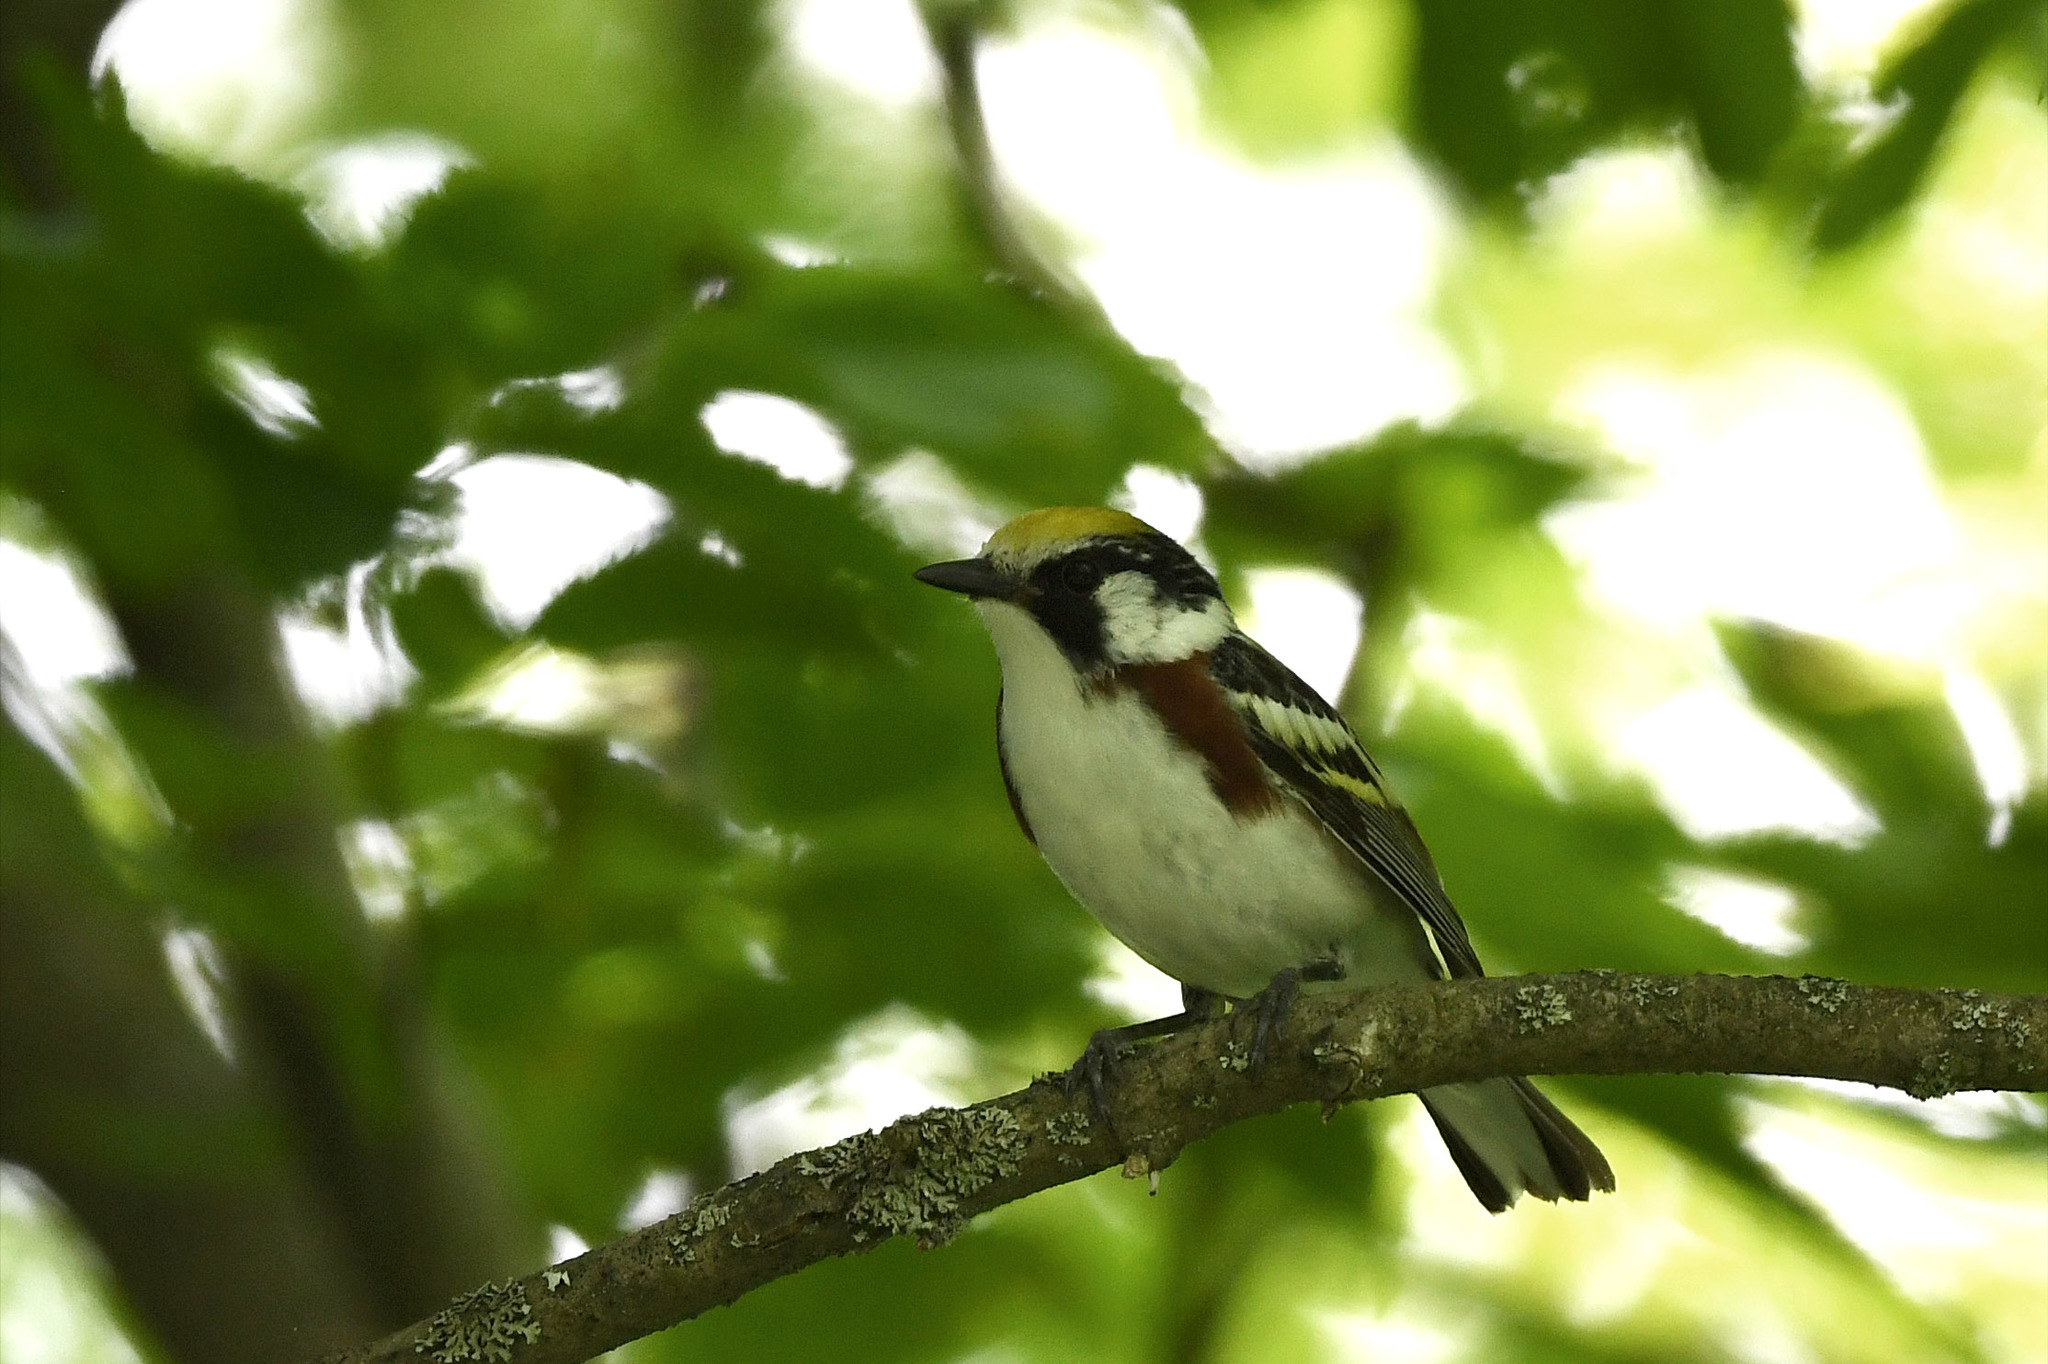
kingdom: Animalia
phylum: Chordata
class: Aves
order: Passeriformes
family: Parulidae
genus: Setophaga
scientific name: Setophaga pensylvanica
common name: Chestnut-sided warbler
